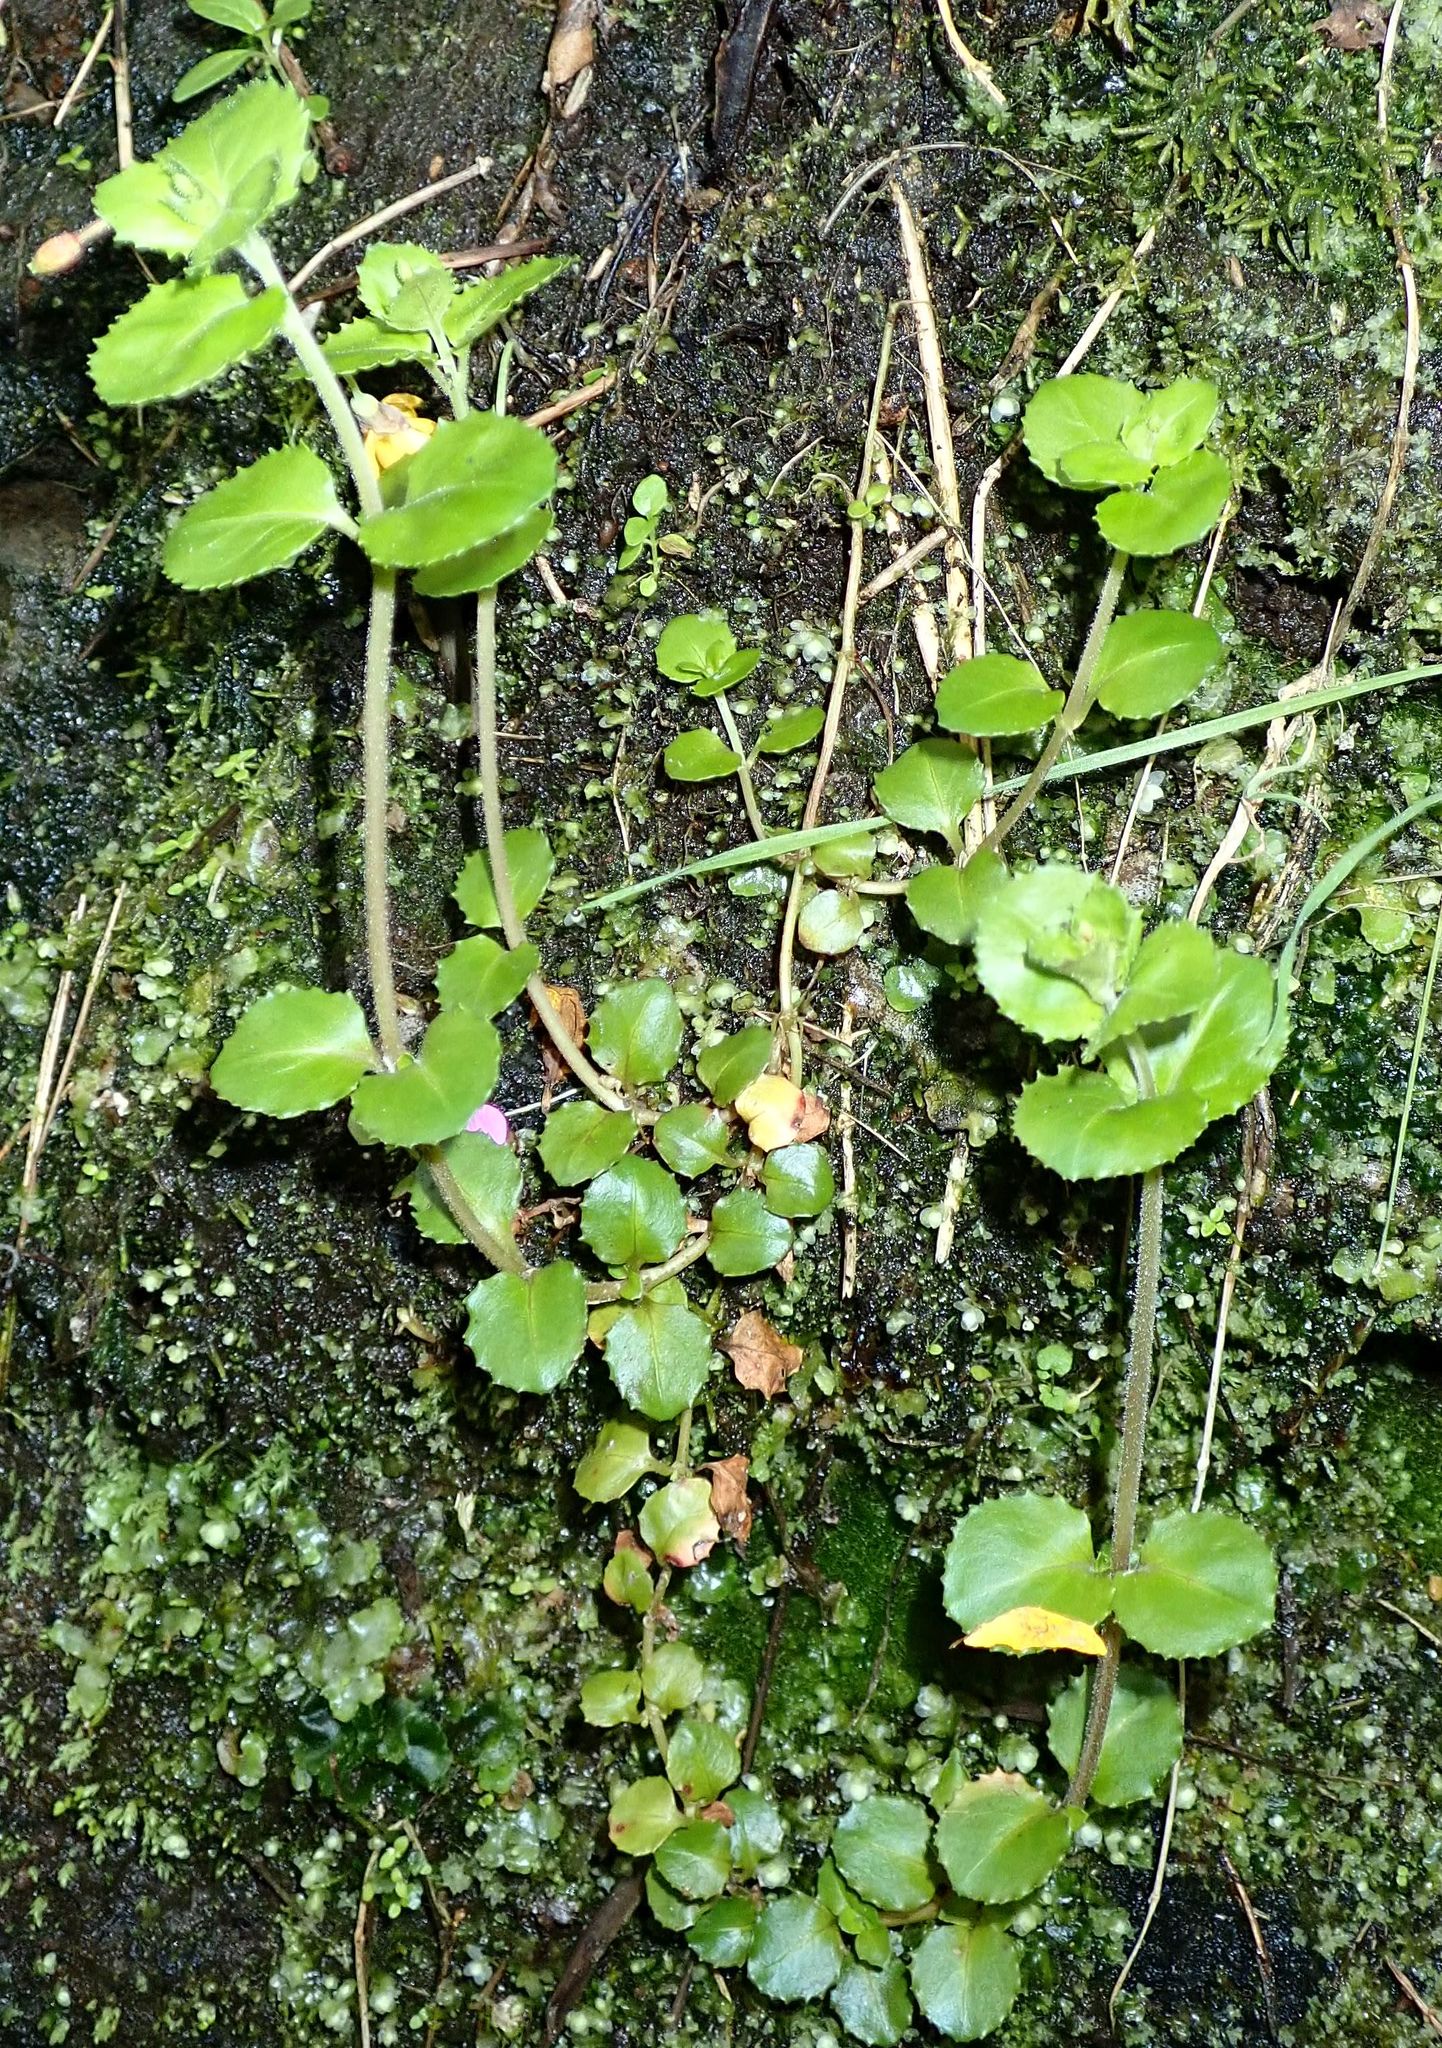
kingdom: Plantae
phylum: Tracheophyta
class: Magnoliopsida
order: Myrtales
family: Onagraceae
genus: Epilobium
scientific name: Epilobium rotundifolium
